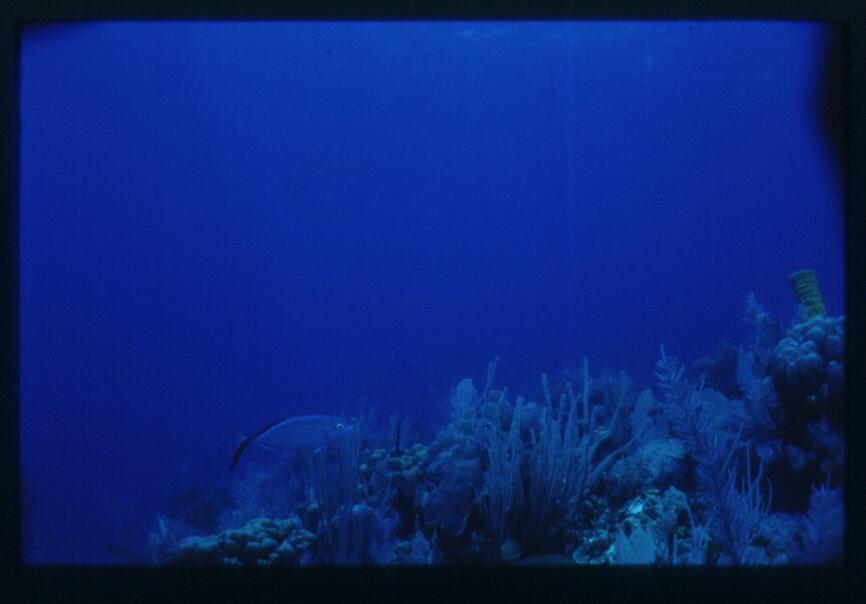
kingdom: Animalia
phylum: Chordata
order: Perciformes
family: Carangidae
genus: Caranx
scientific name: Caranx ruber
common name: Bar jack
